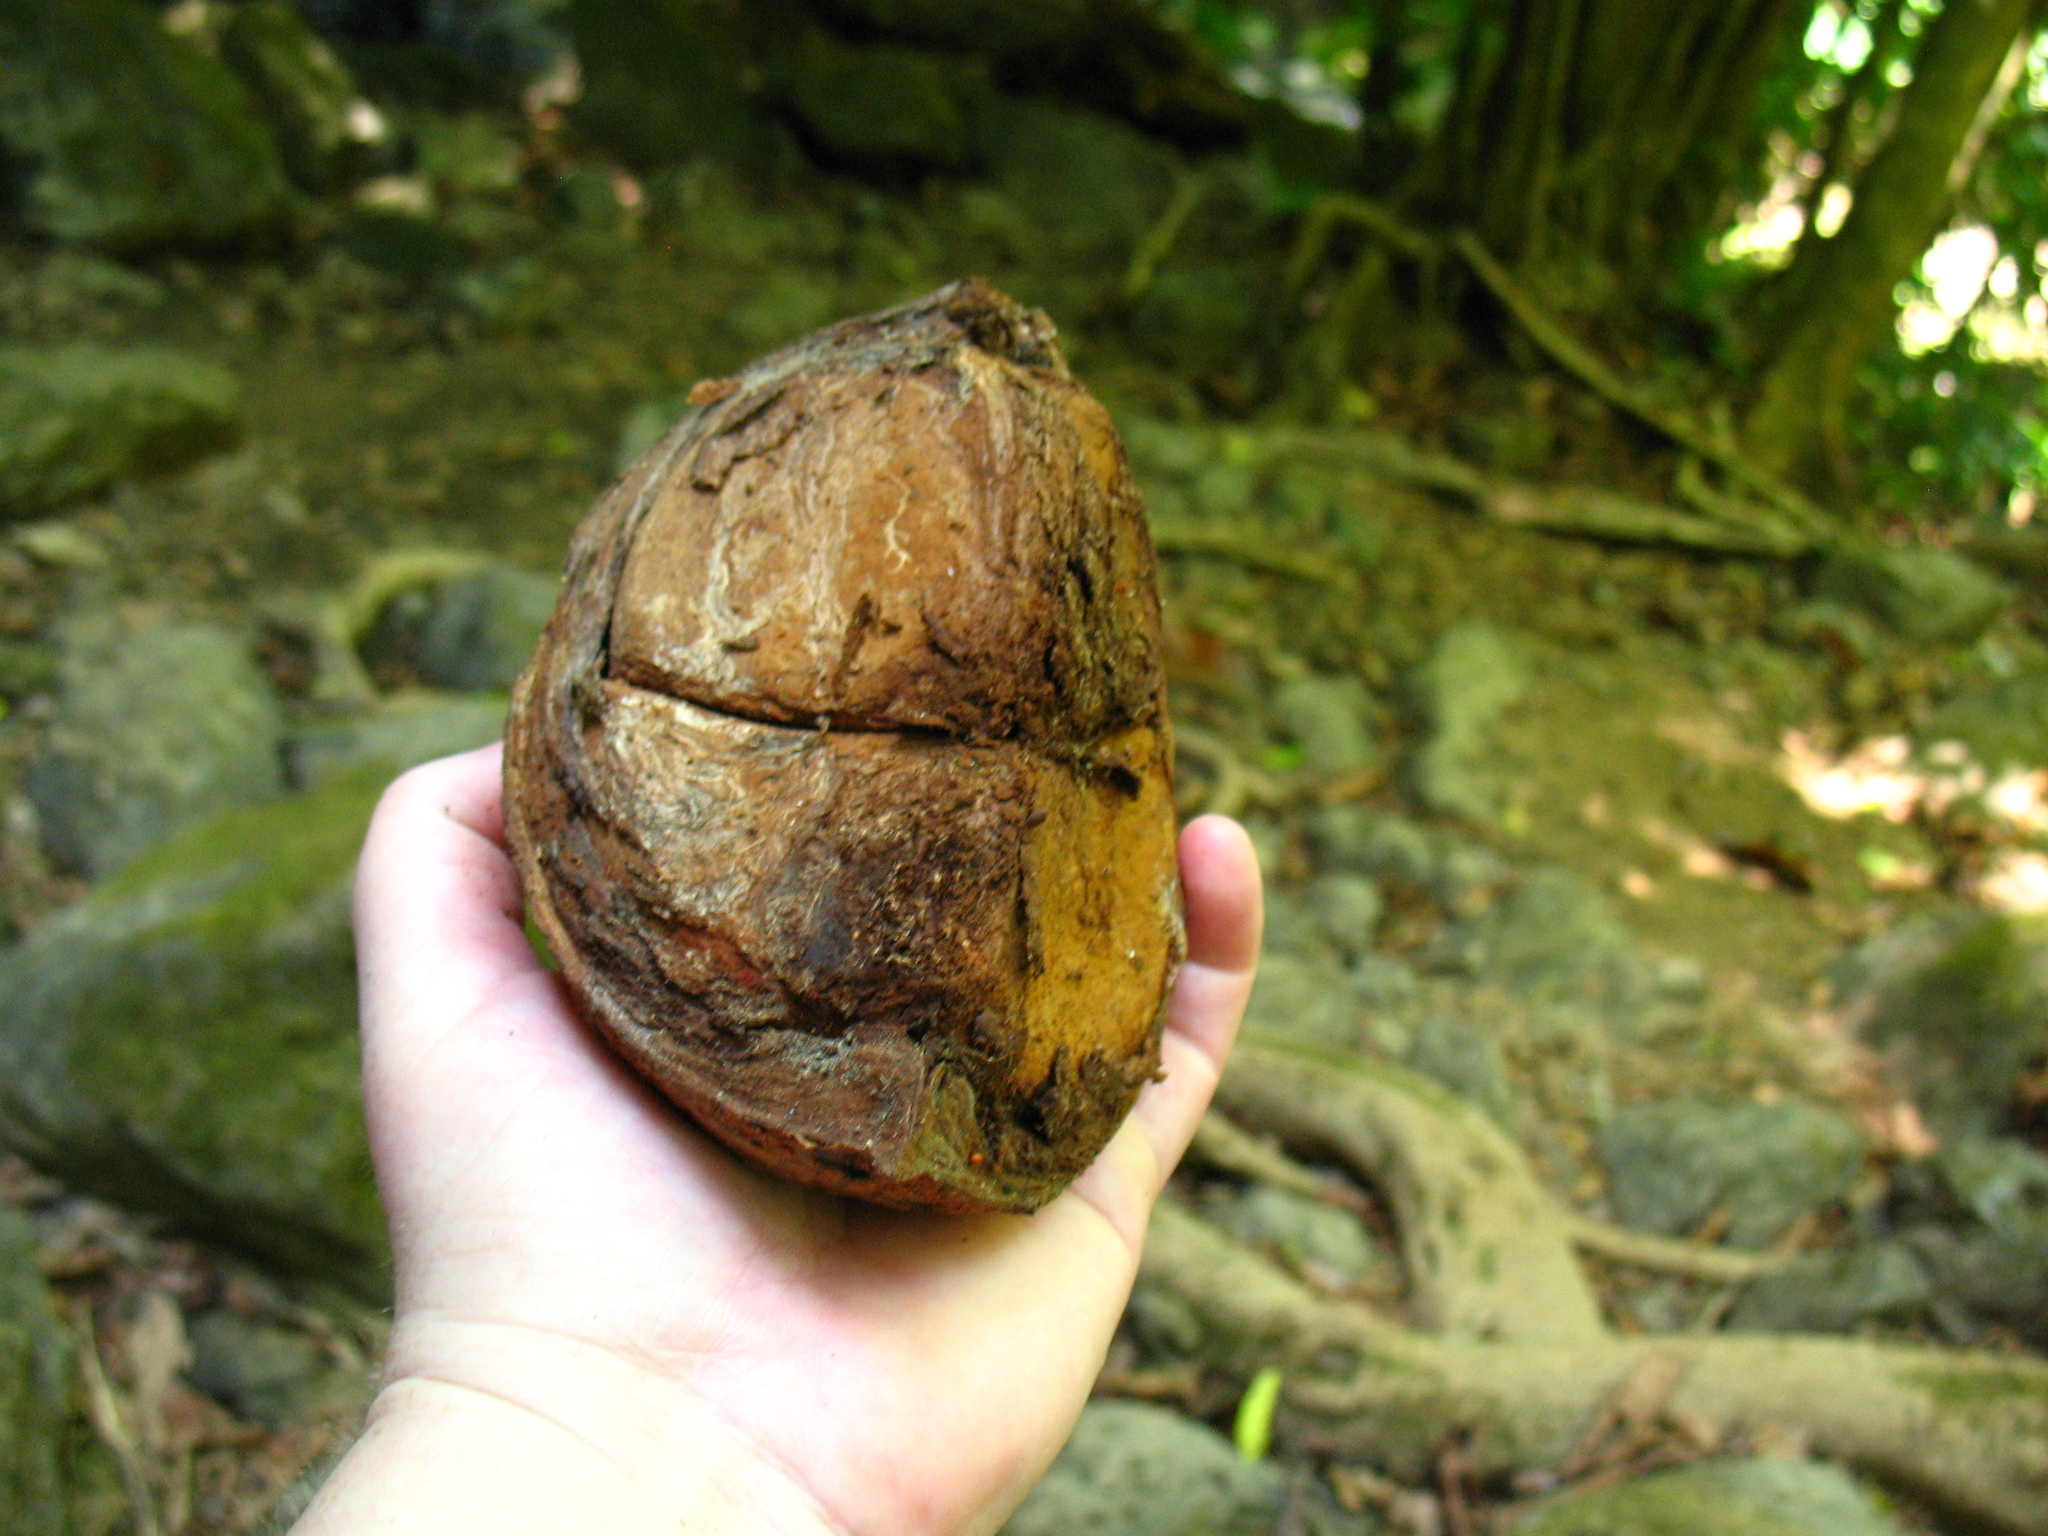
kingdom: Plantae
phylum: Tracheophyta
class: Magnoliopsida
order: Sapindales
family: Meliaceae
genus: Carapa
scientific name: Carapa guianensis
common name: Crabwood
